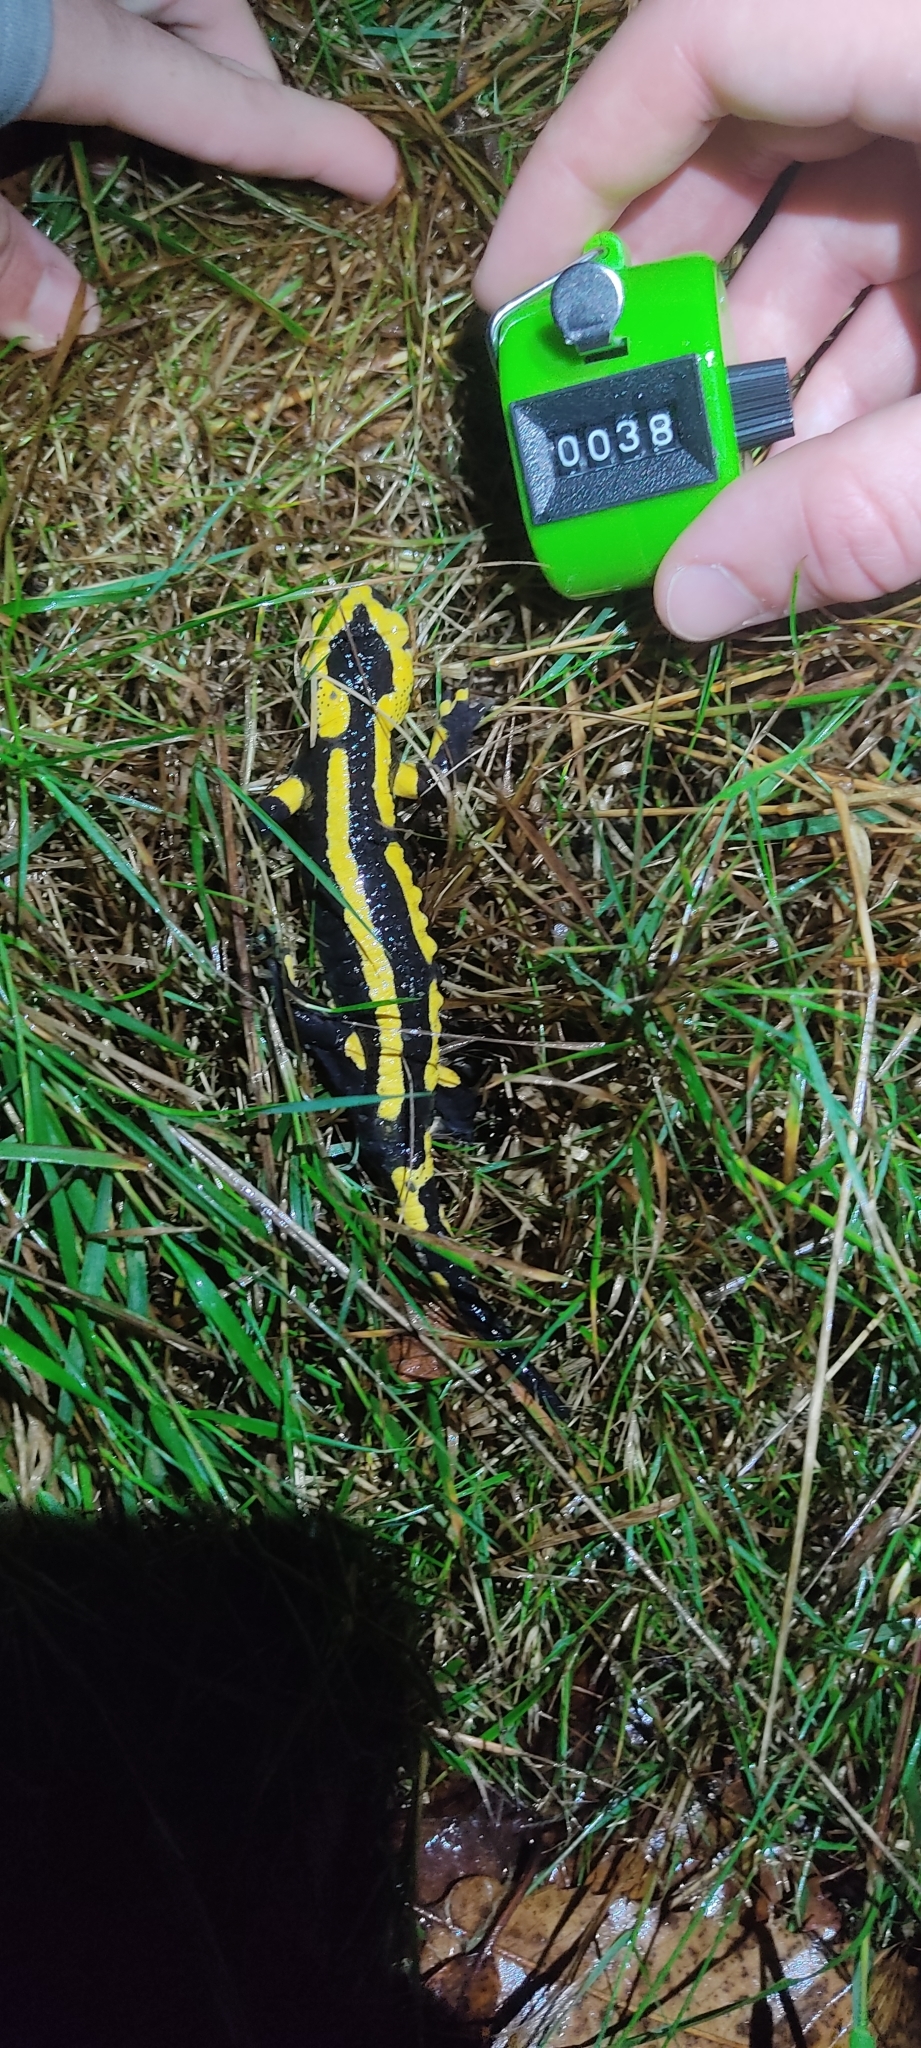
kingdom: Animalia
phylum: Chordata
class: Amphibia
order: Caudata
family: Salamandridae
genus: Salamandra
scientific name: Salamandra salamandra
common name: Fire salamander
